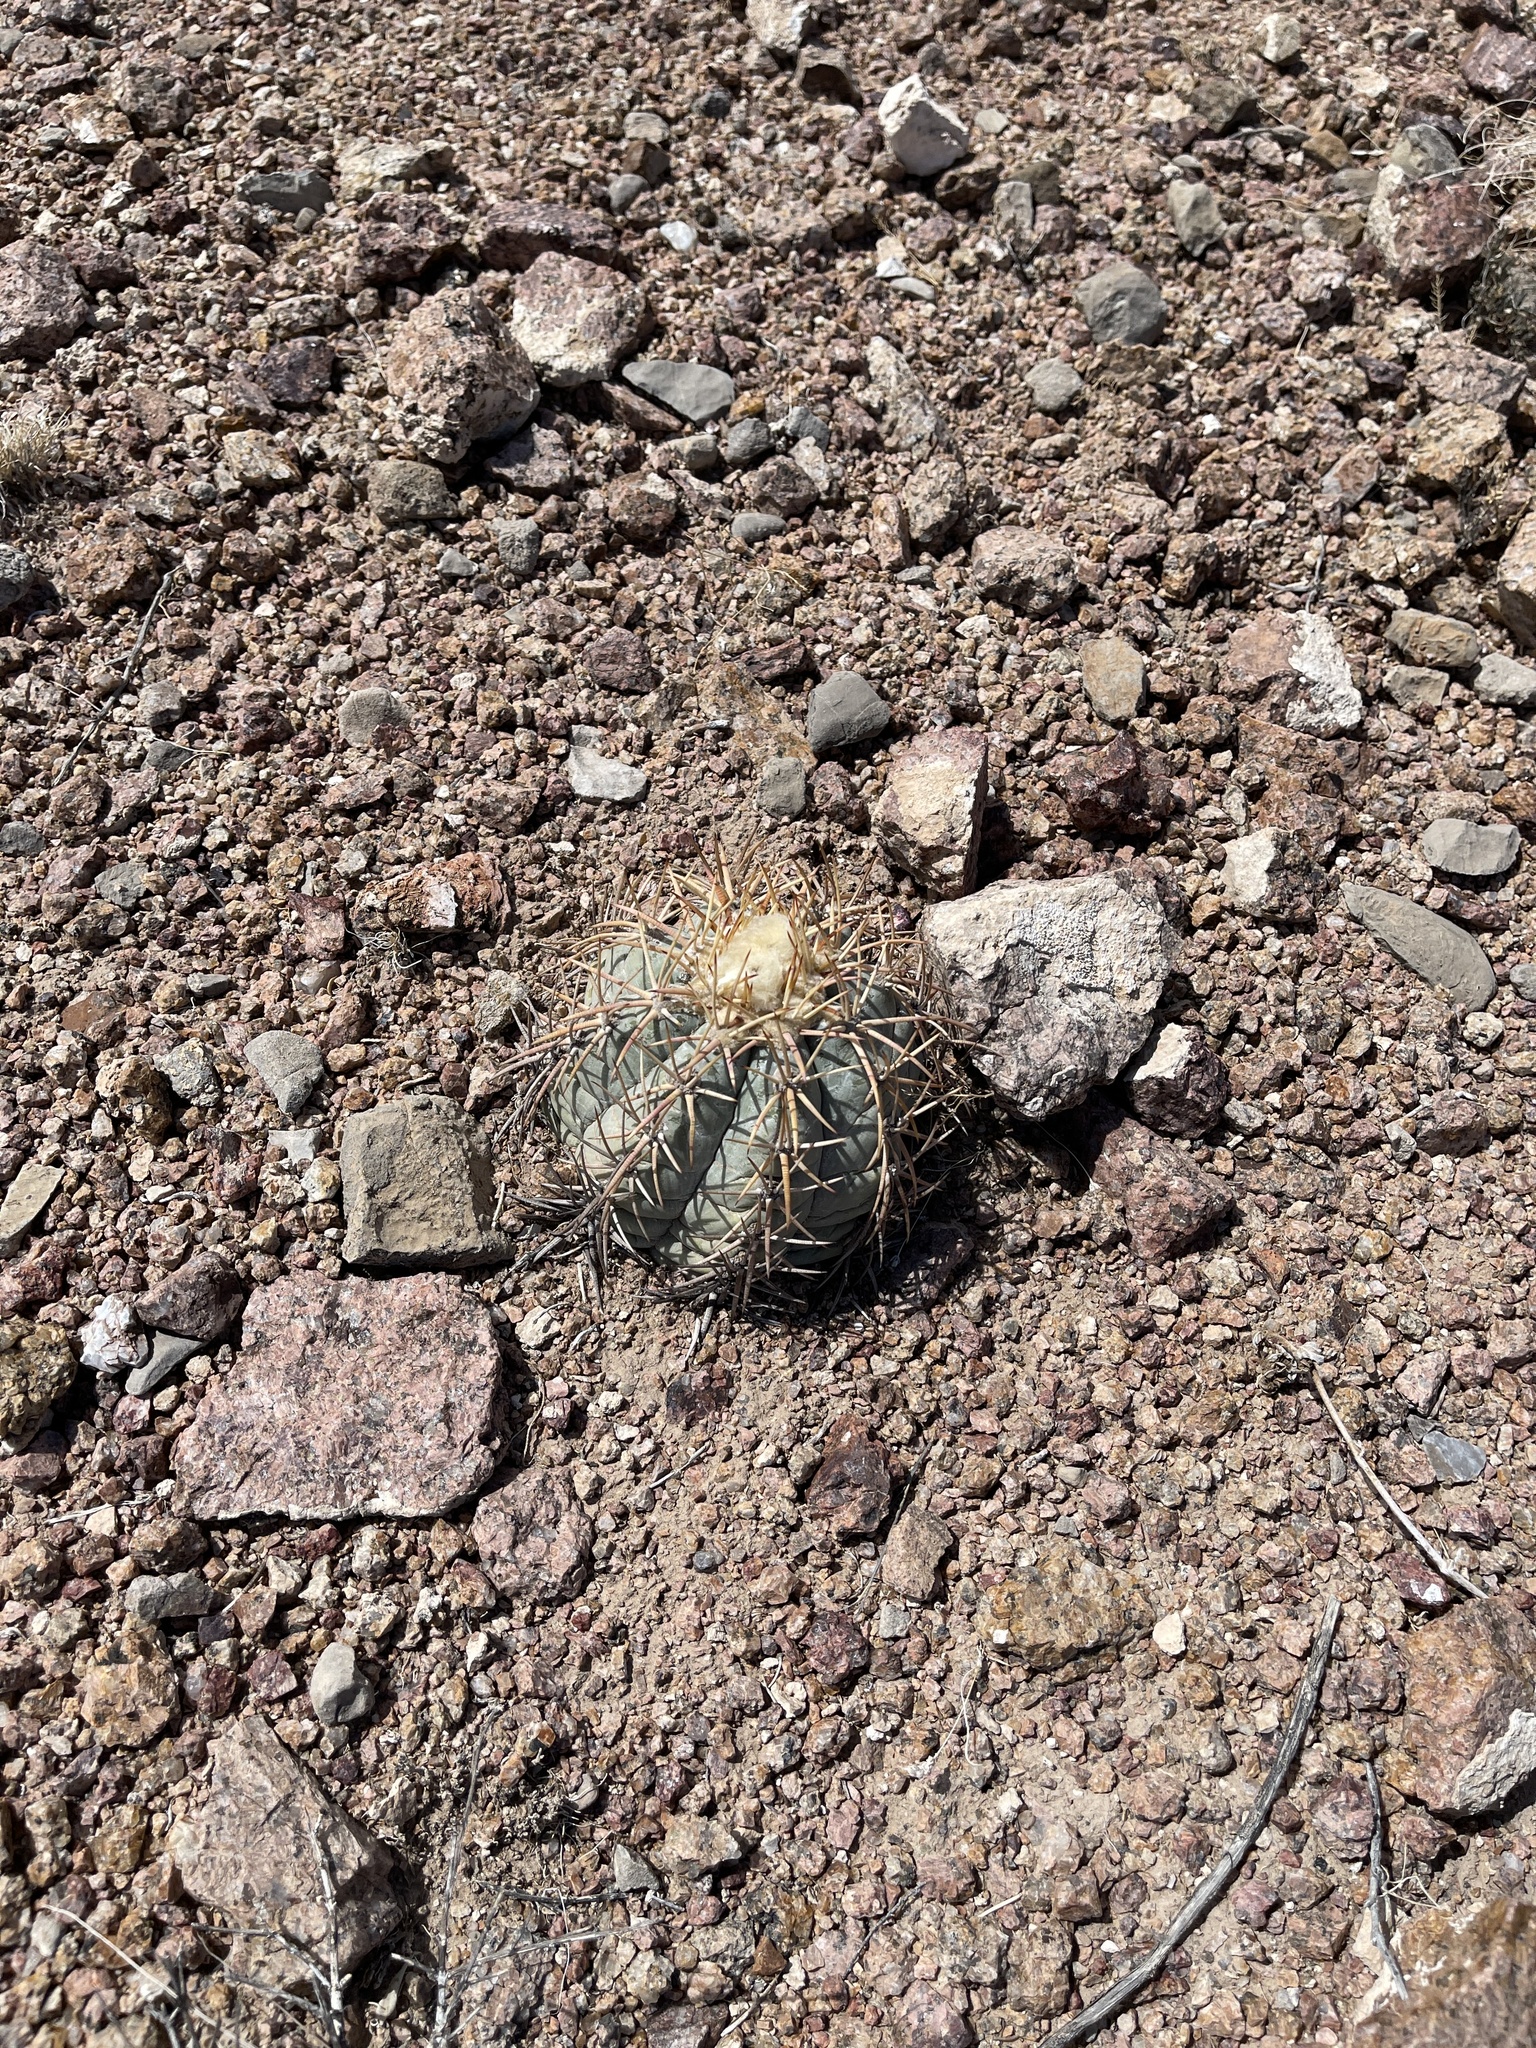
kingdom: Plantae
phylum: Tracheophyta
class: Magnoliopsida
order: Caryophyllales
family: Cactaceae
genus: Echinocactus
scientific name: Echinocactus horizonthalonius
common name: Devilshead
